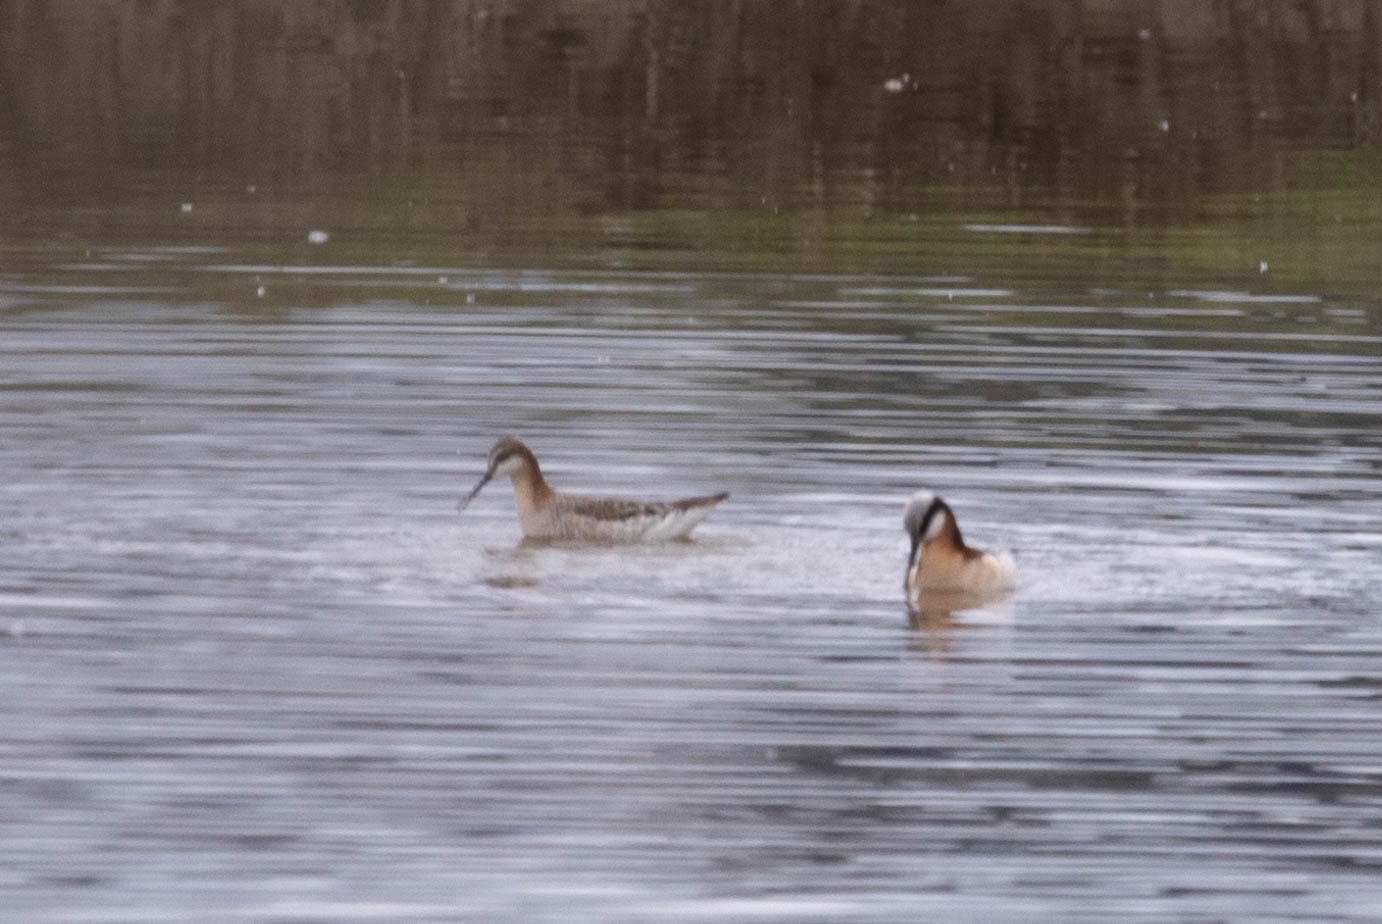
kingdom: Animalia
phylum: Chordata
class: Aves
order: Charadriiformes
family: Scolopacidae
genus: Phalaropus
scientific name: Phalaropus tricolor
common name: Wilson's phalarope
